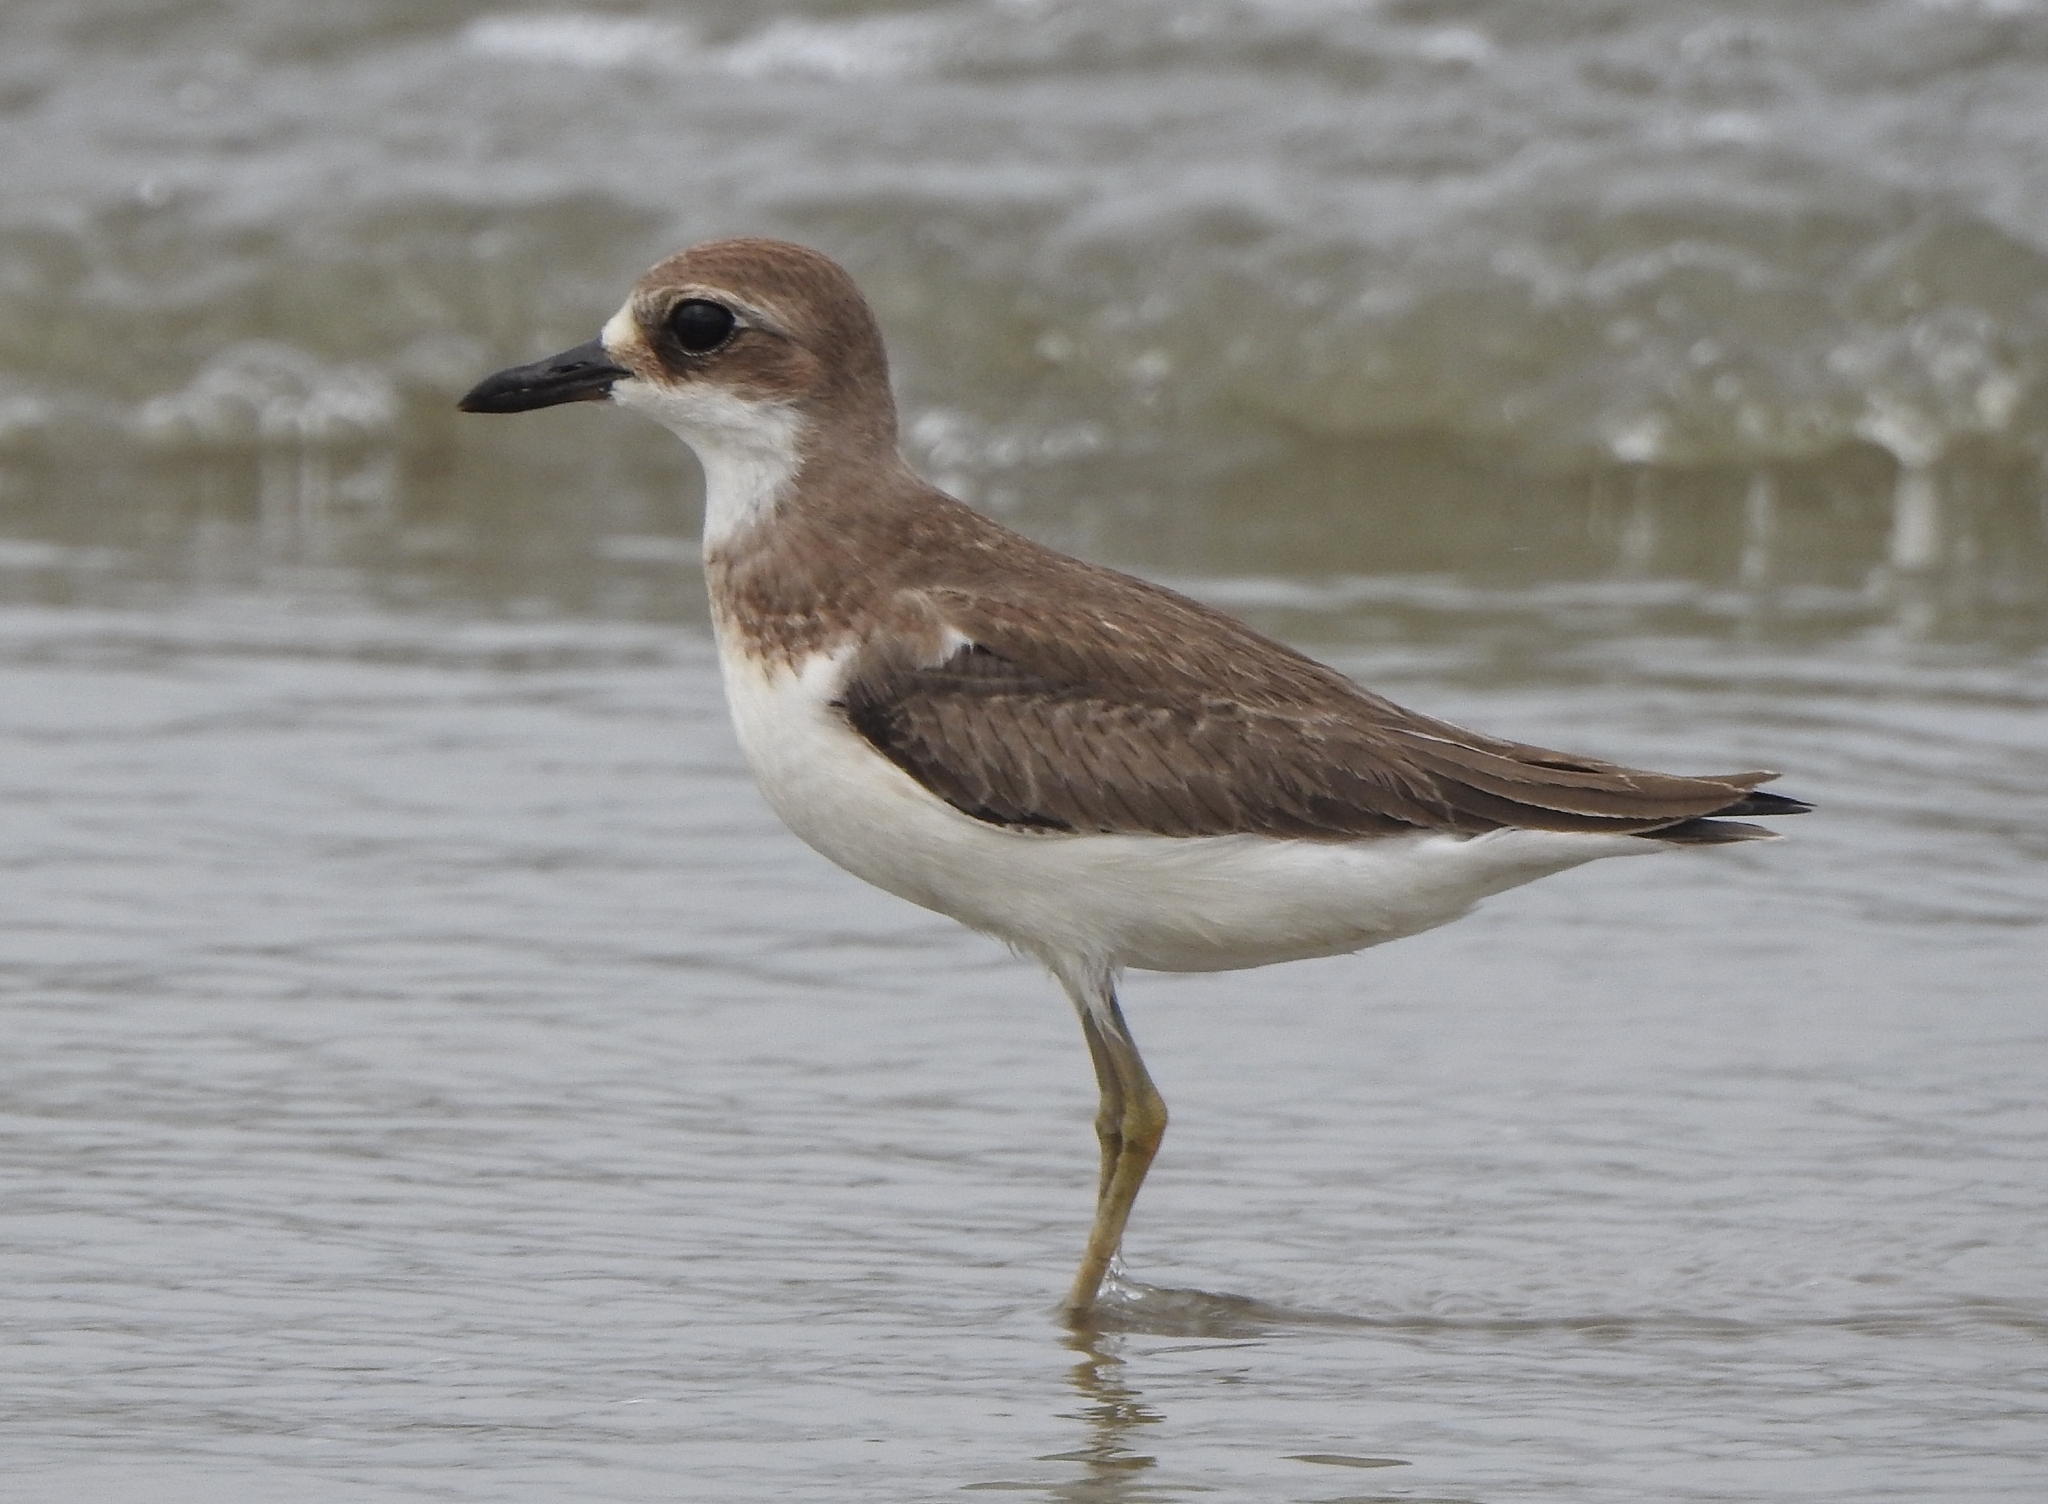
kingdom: Animalia
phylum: Chordata
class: Aves
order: Charadriiformes
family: Charadriidae
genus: Charadrius
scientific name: Charadrius leschenaultii
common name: Greater sand plover
